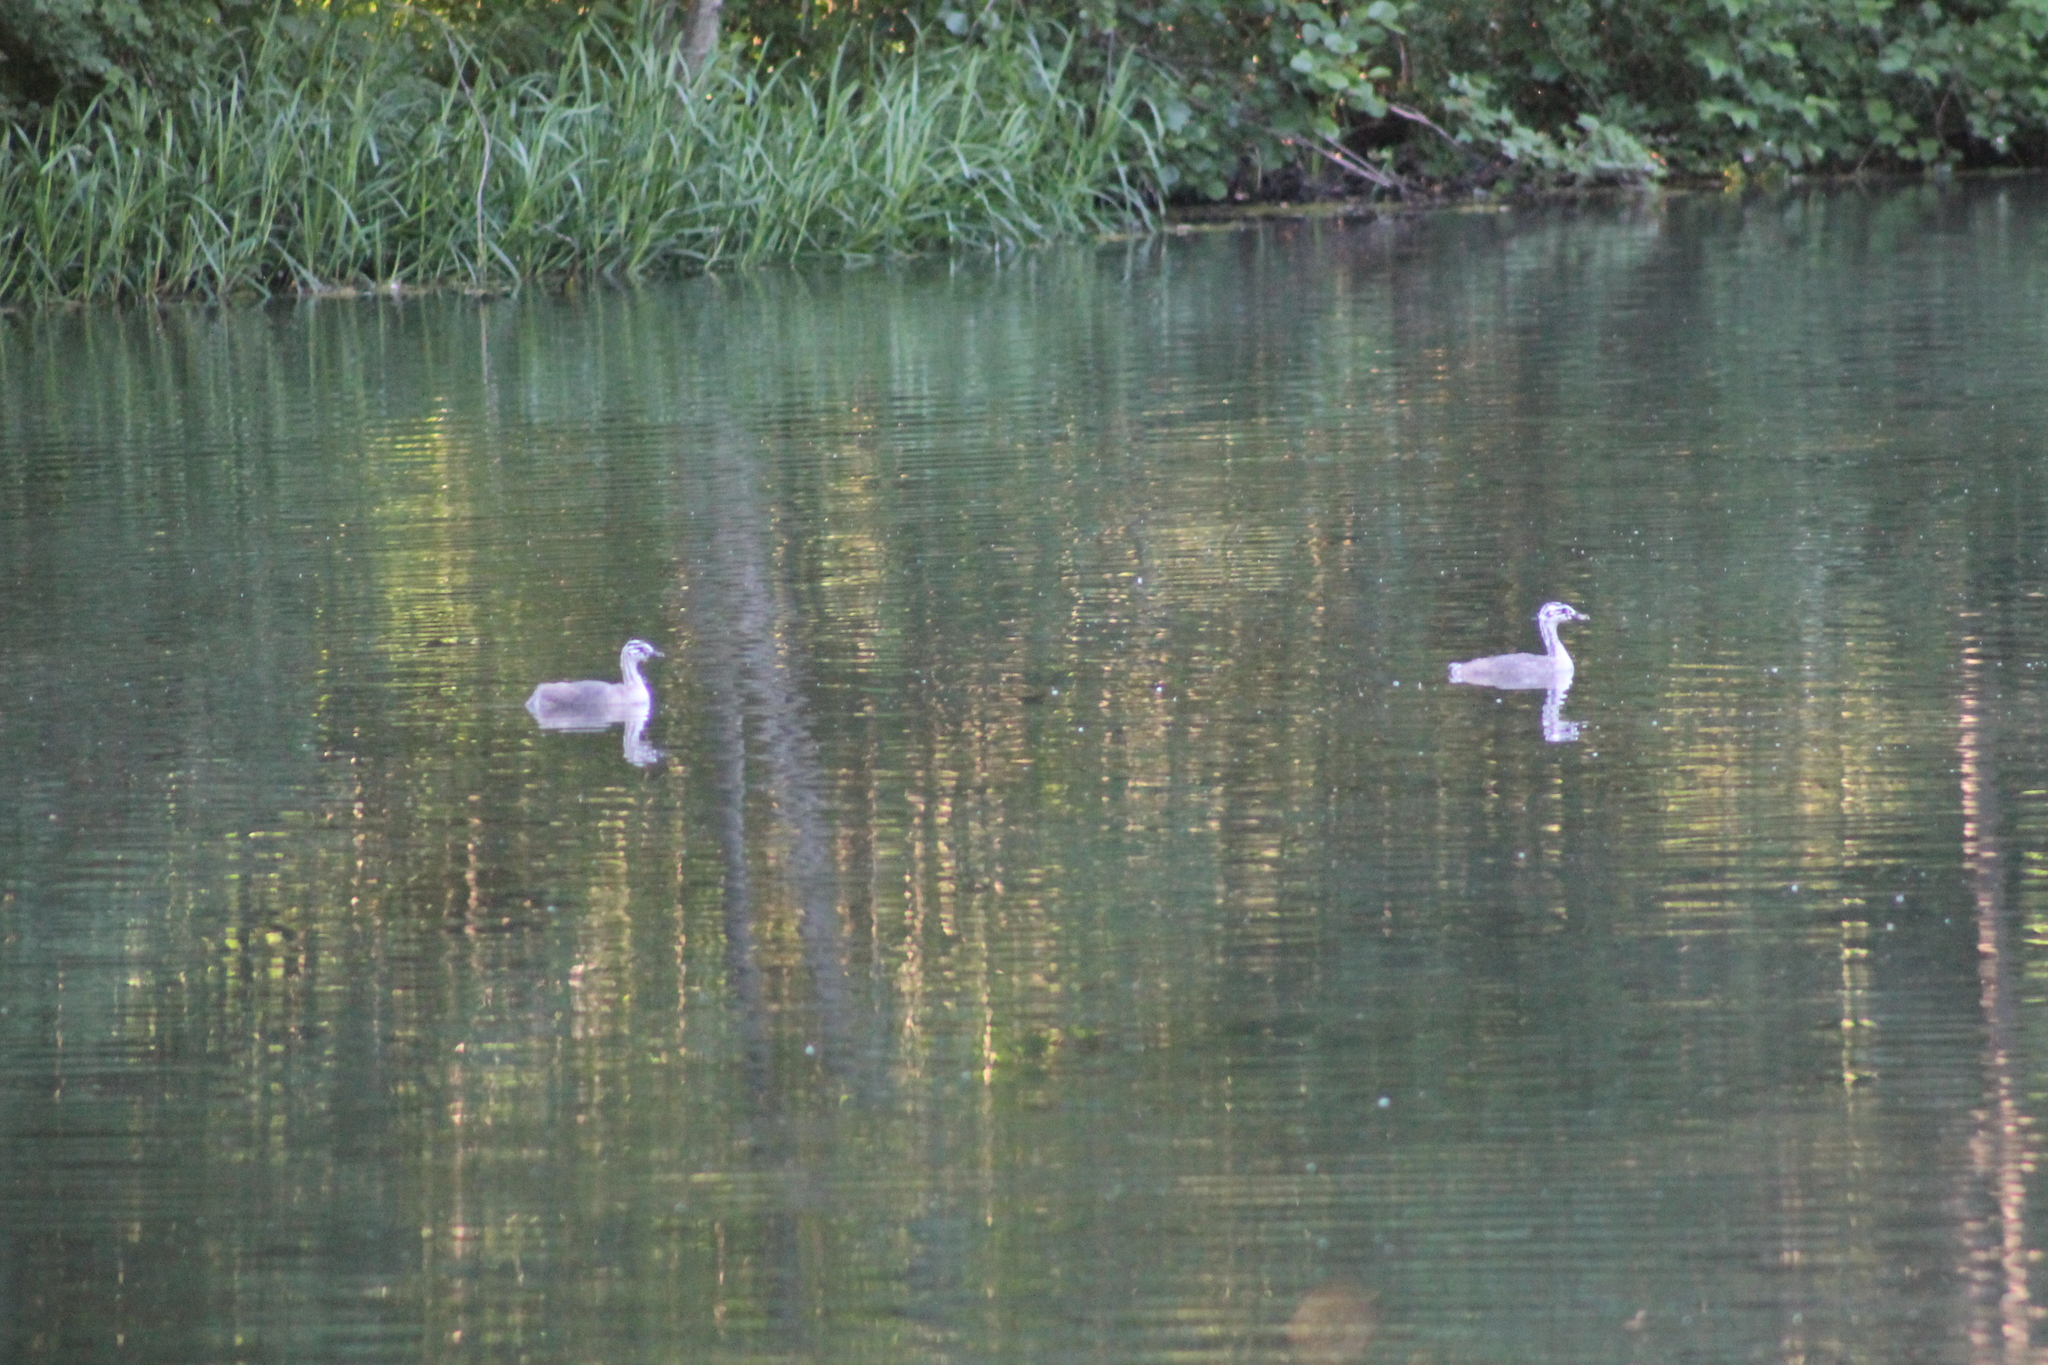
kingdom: Animalia
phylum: Chordata
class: Aves
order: Podicipediformes
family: Podicipedidae
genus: Podiceps
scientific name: Podiceps cristatus
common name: Great crested grebe
